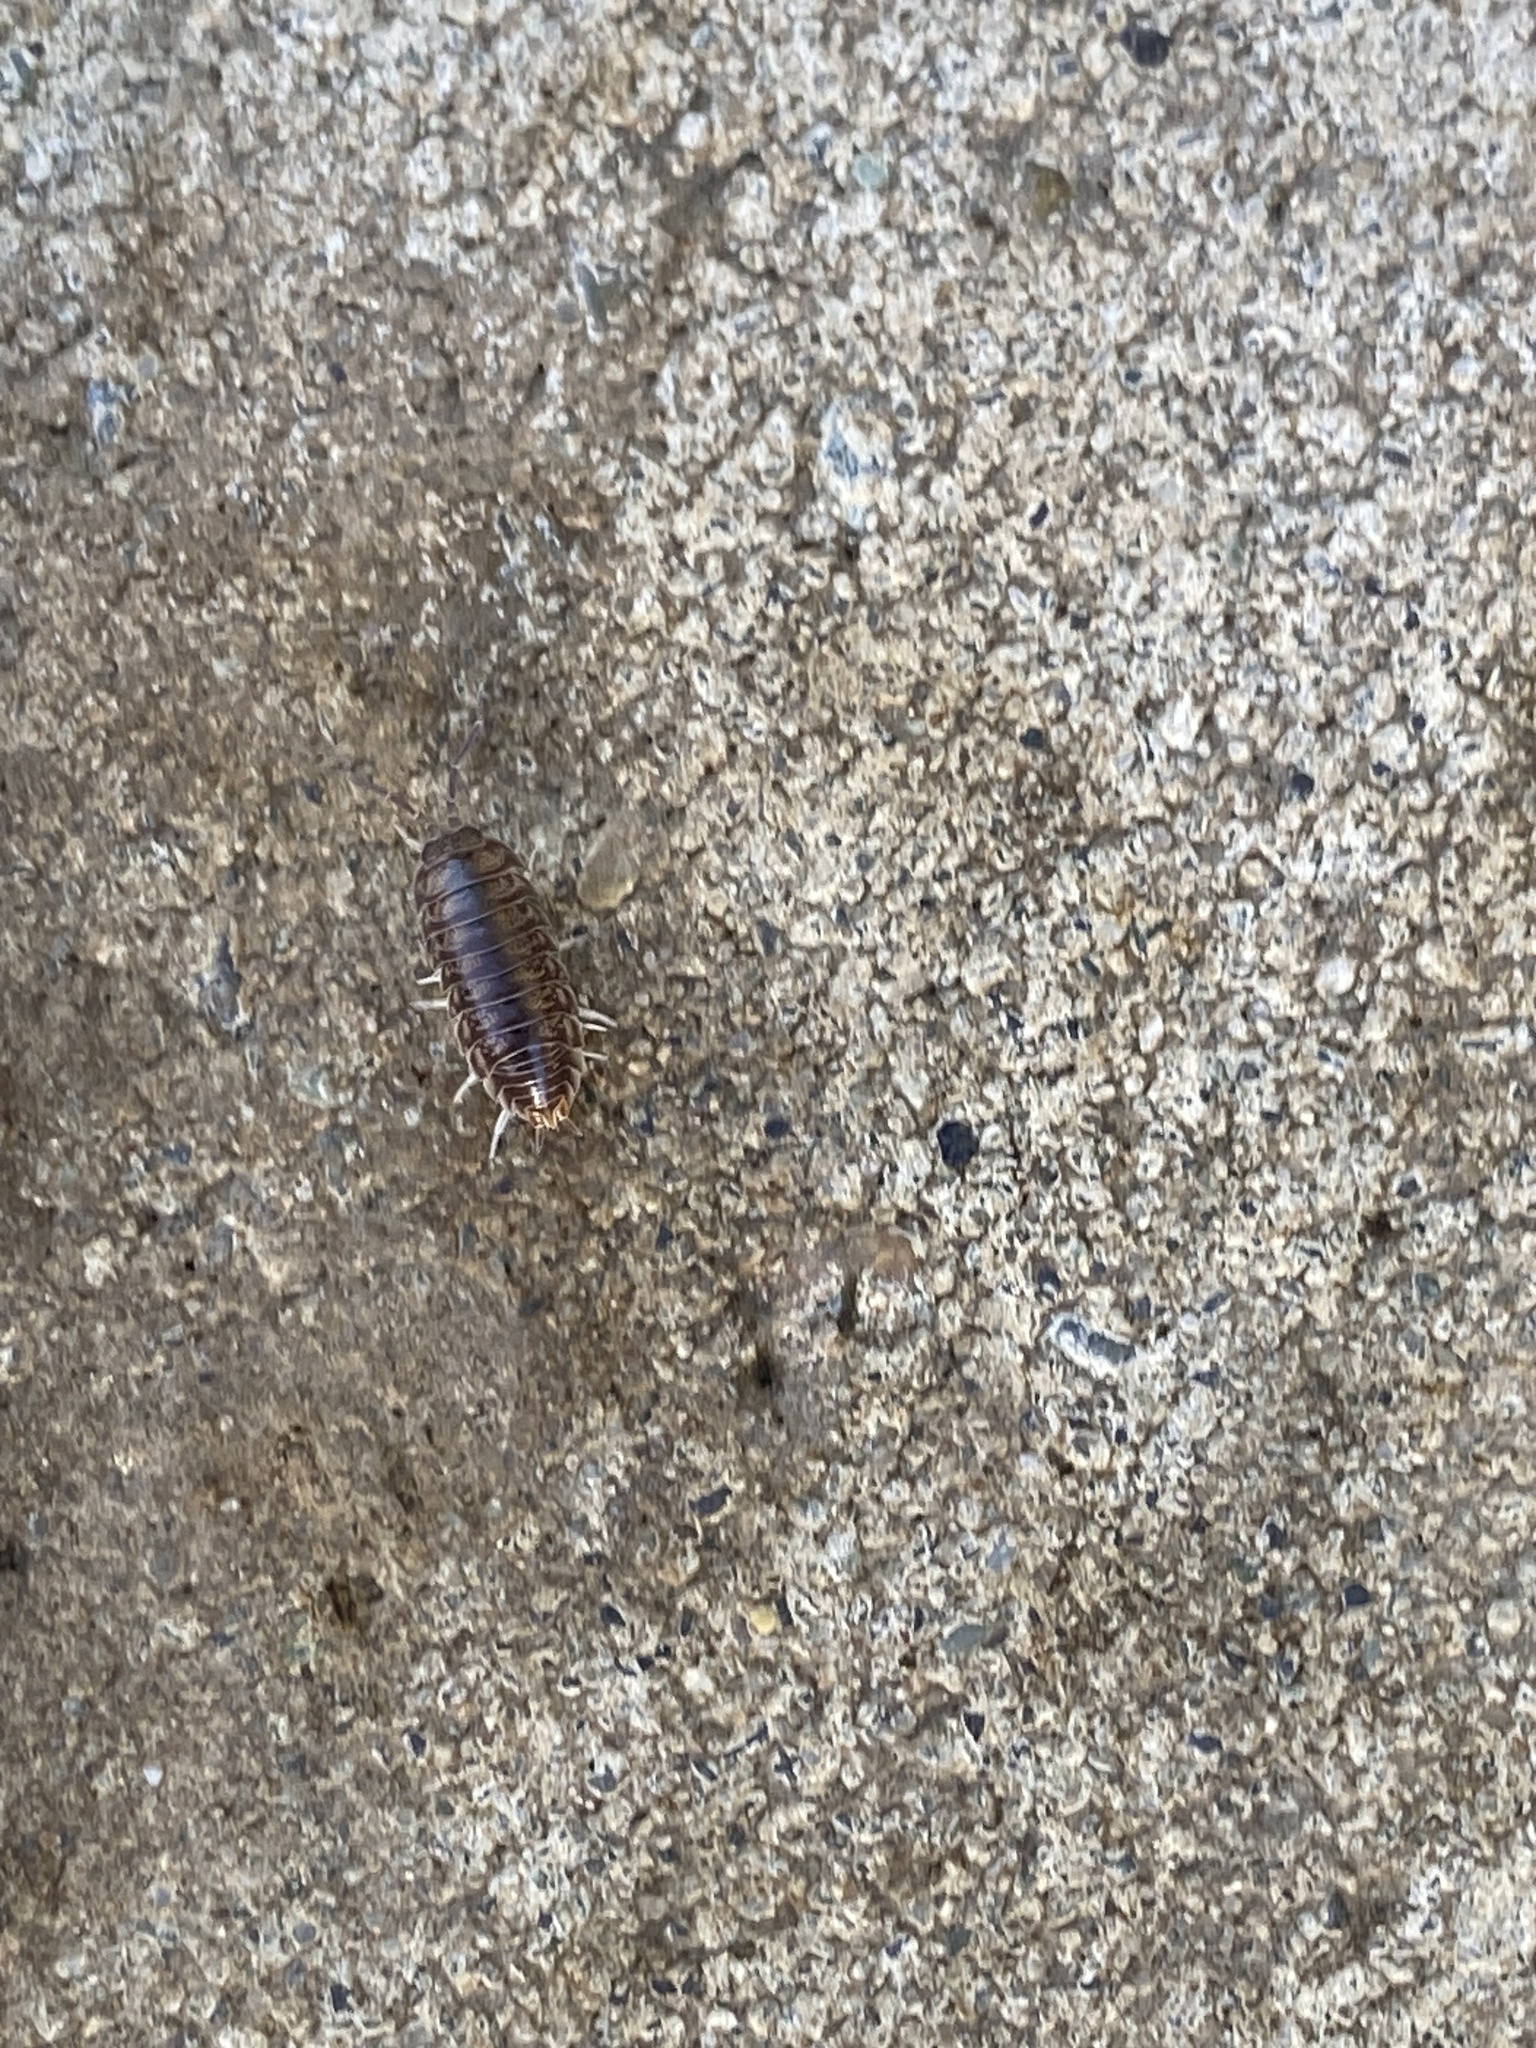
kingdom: Animalia
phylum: Arthropoda
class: Malacostraca
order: Isopoda
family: Cylisticidae
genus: Cylisticus
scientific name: Cylisticus convexus
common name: Curly woodlouse
